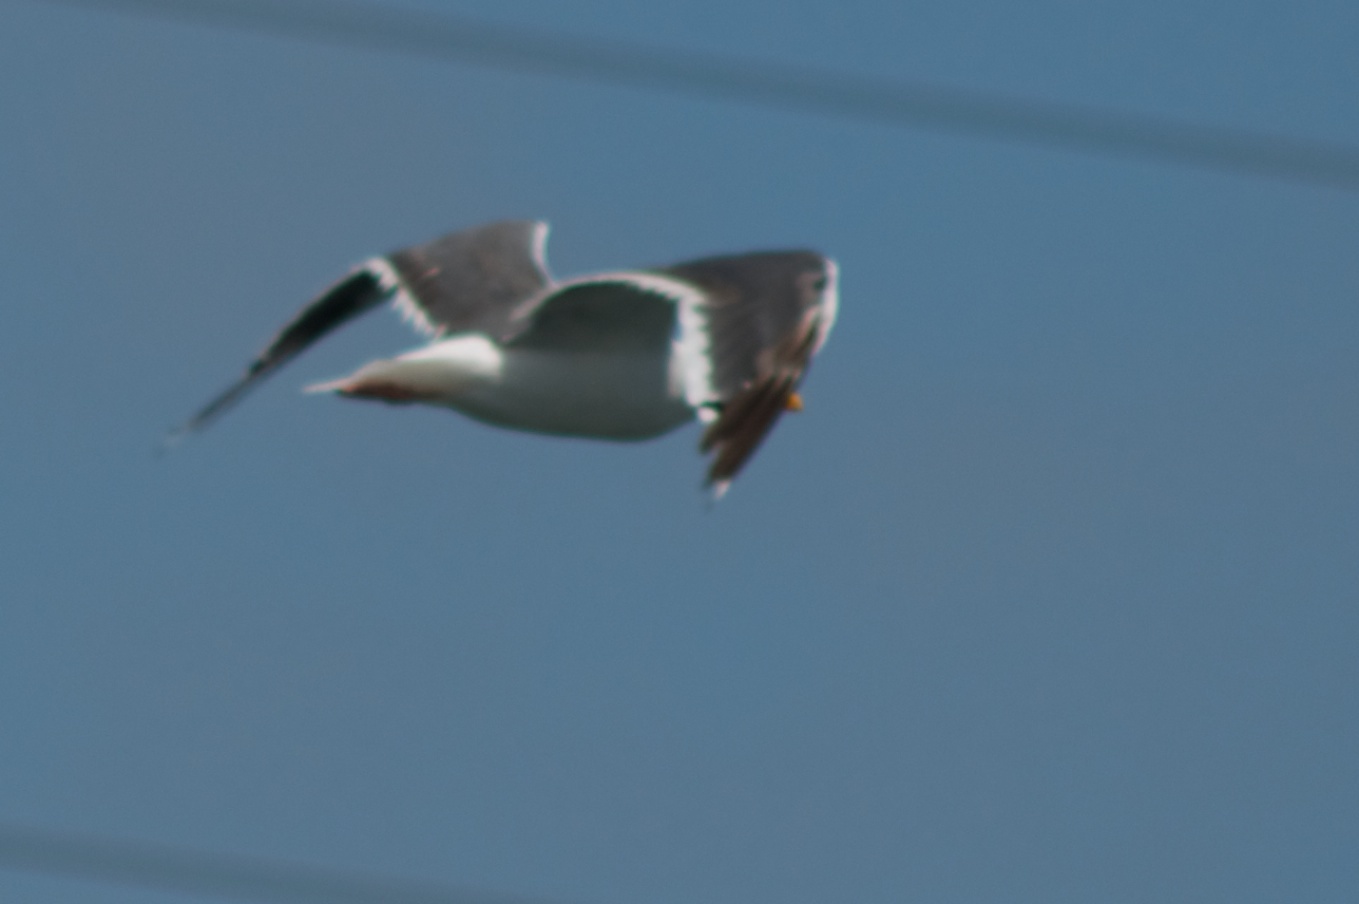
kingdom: Animalia
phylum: Chordata
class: Aves
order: Charadriiformes
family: Laridae
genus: Larus
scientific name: Larus occidentalis
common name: Western gull
